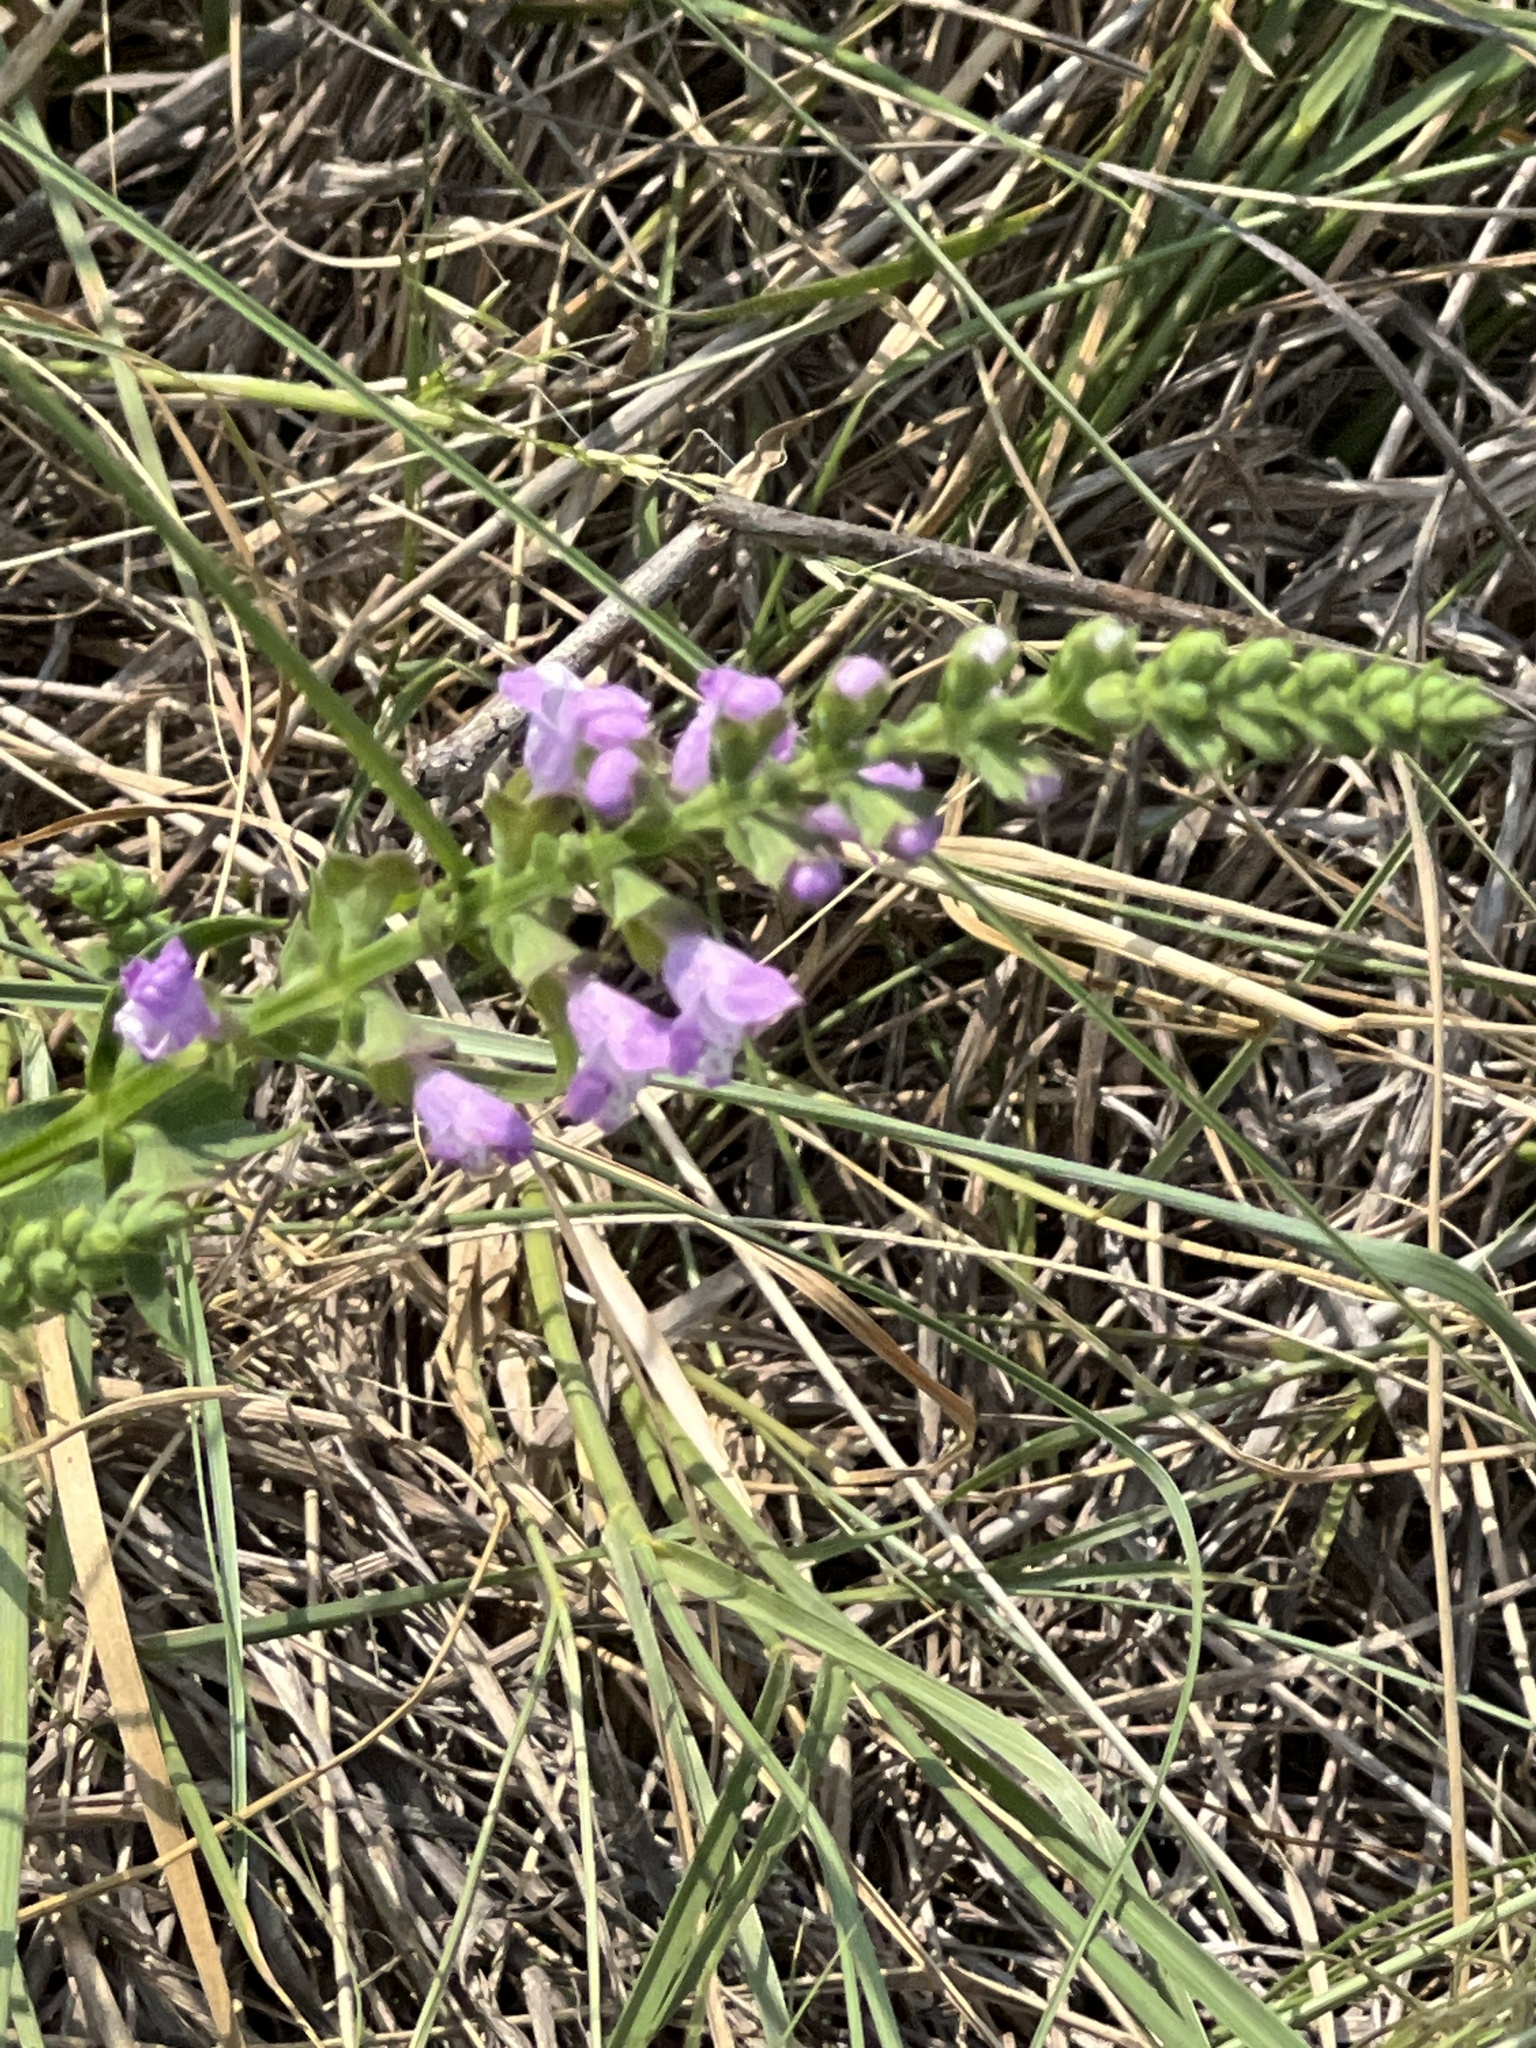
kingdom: Plantae
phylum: Tracheophyta
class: Magnoliopsida
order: Lamiales
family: Lamiaceae
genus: Warnockia
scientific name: Warnockia scutellarioides
